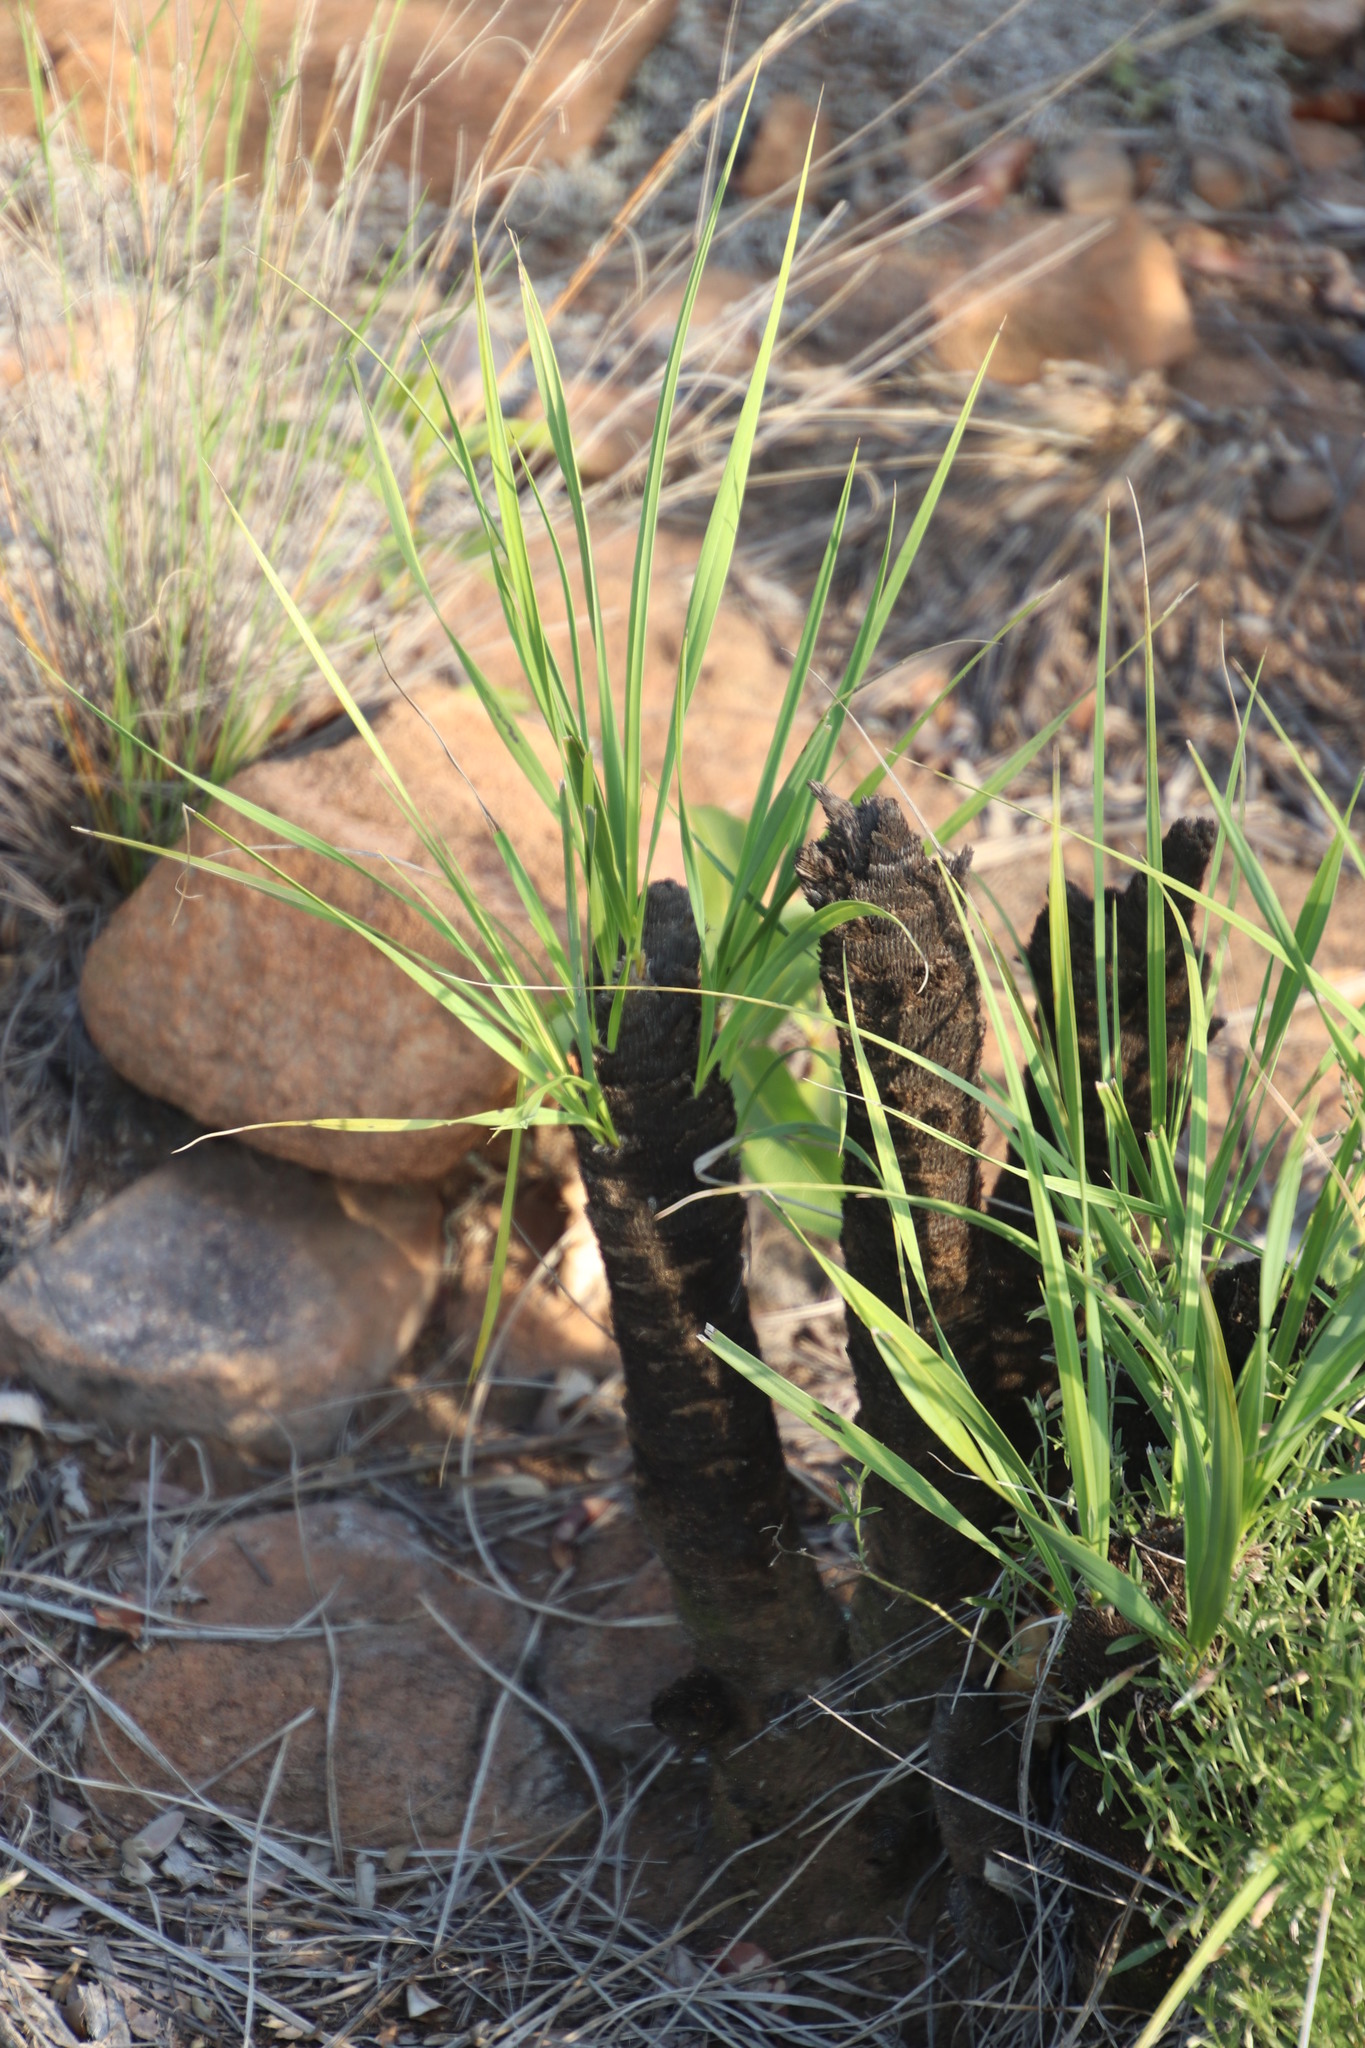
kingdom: Plantae
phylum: Tracheophyta
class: Liliopsida
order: Pandanales
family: Velloziaceae
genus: Xerophyta
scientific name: Xerophyta retinervis
